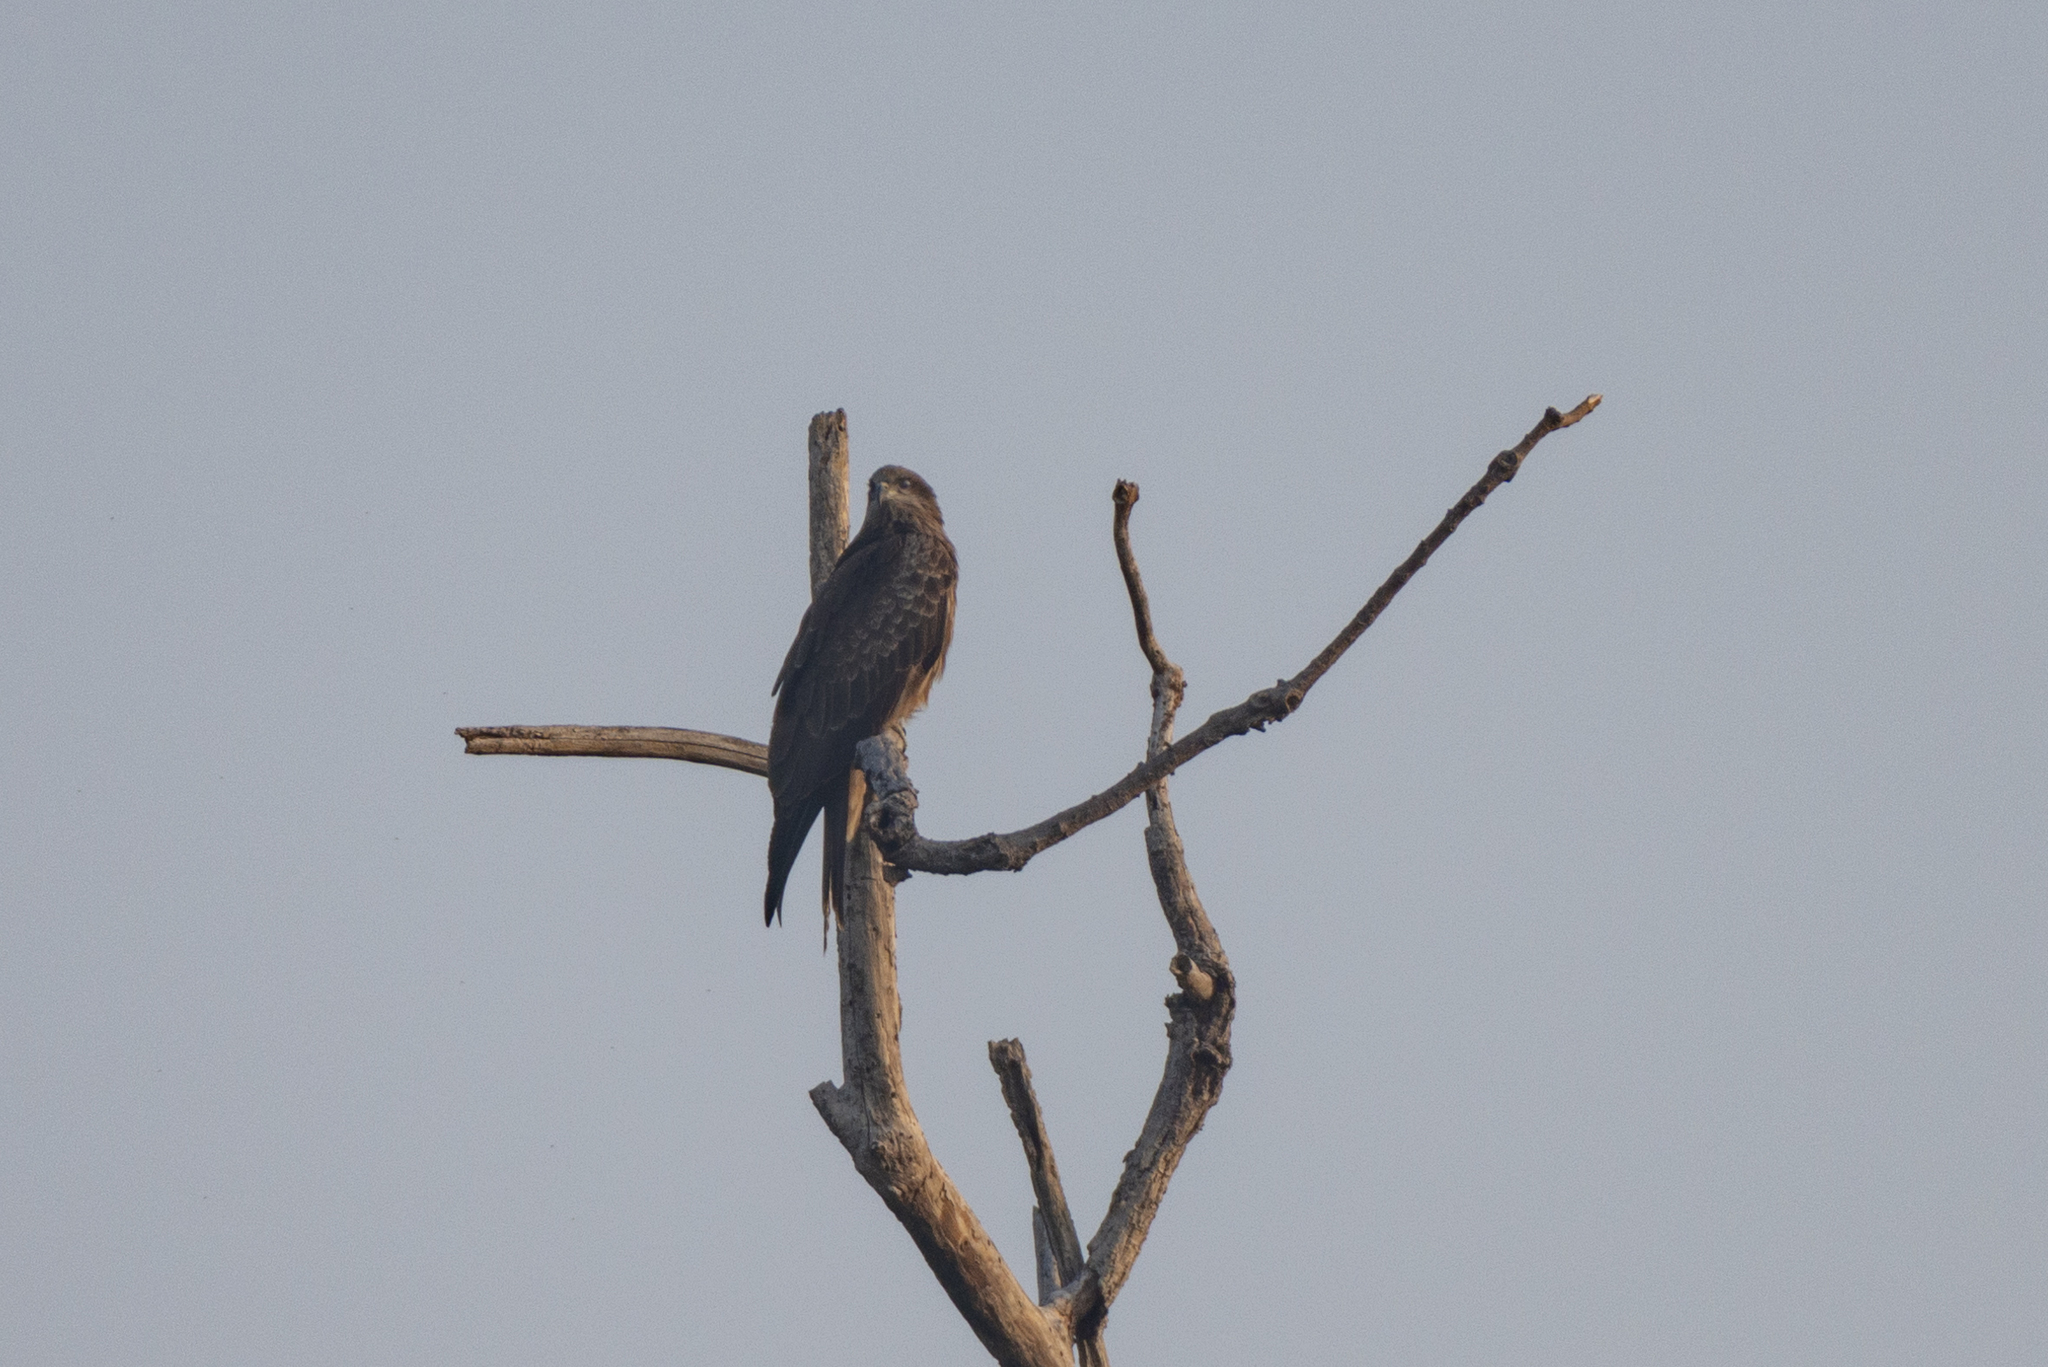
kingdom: Animalia
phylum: Chordata
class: Aves
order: Accipitriformes
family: Accipitridae
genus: Milvus
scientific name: Milvus migrans
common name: Black kite
